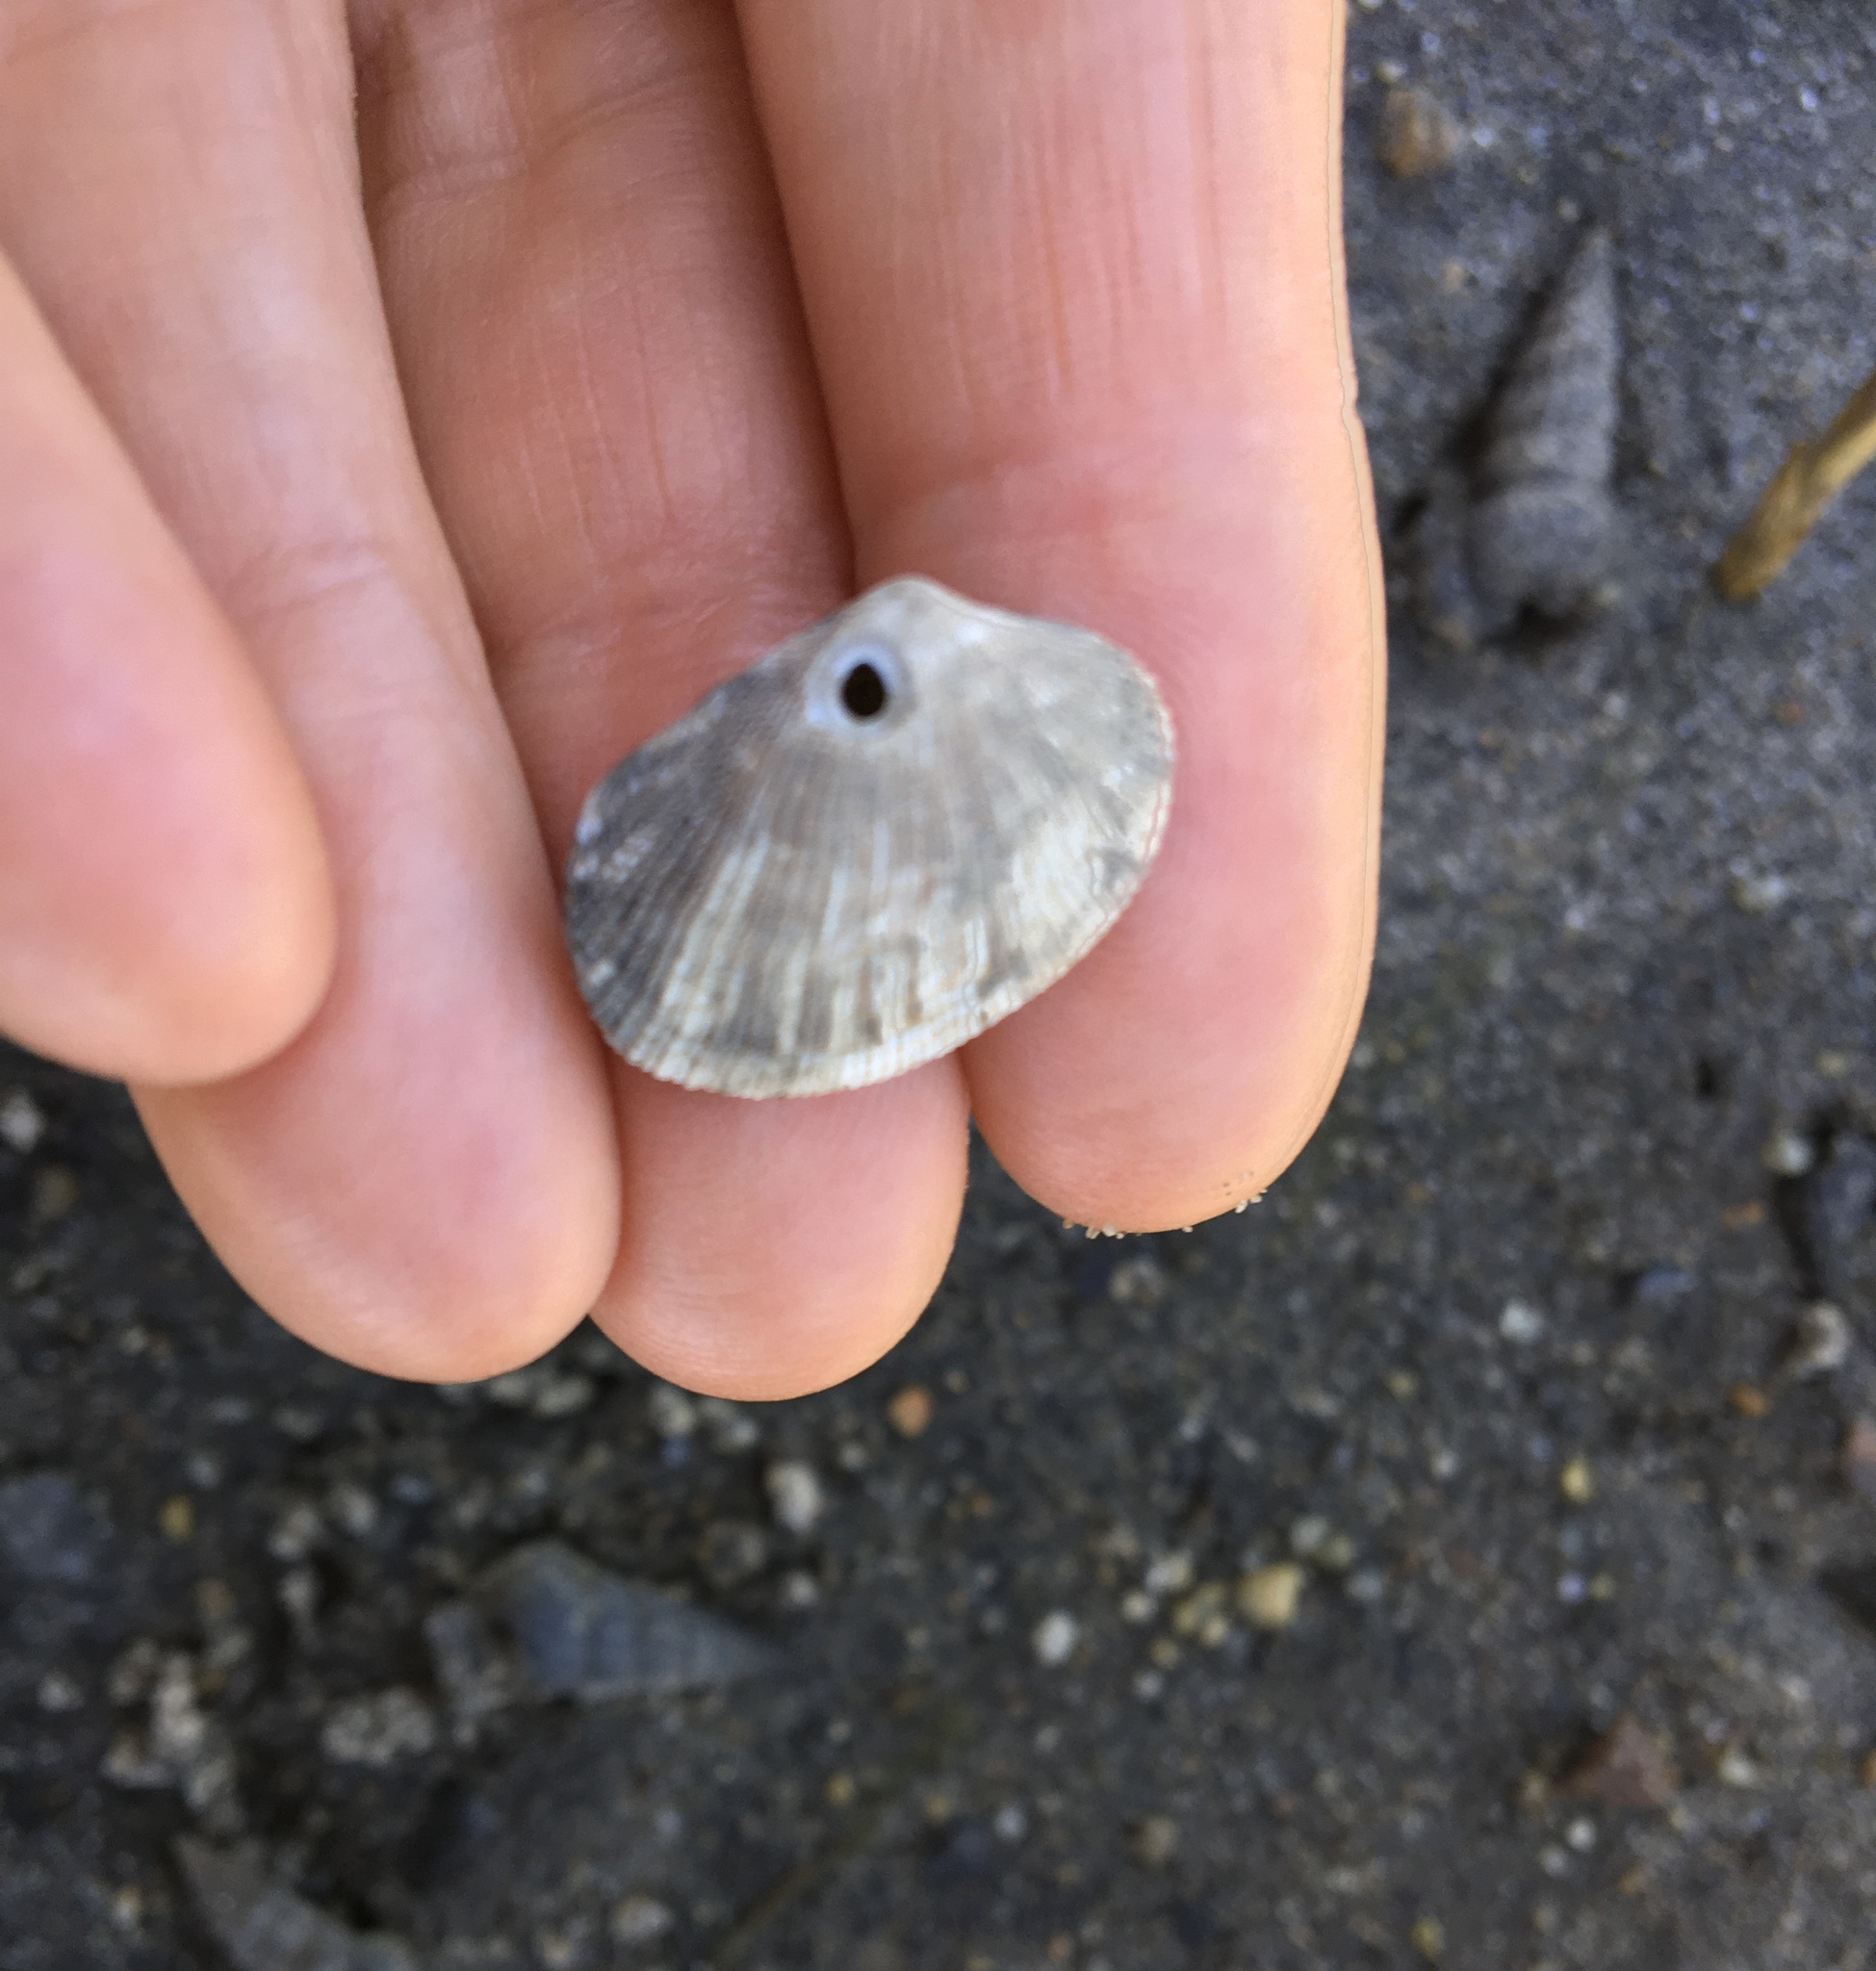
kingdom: Animalia
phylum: Mollusca
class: Bivalvia
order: Venerida
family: Veneridae
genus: Ruditapes
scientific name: Ruditapes philippinarum
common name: Manila clam
